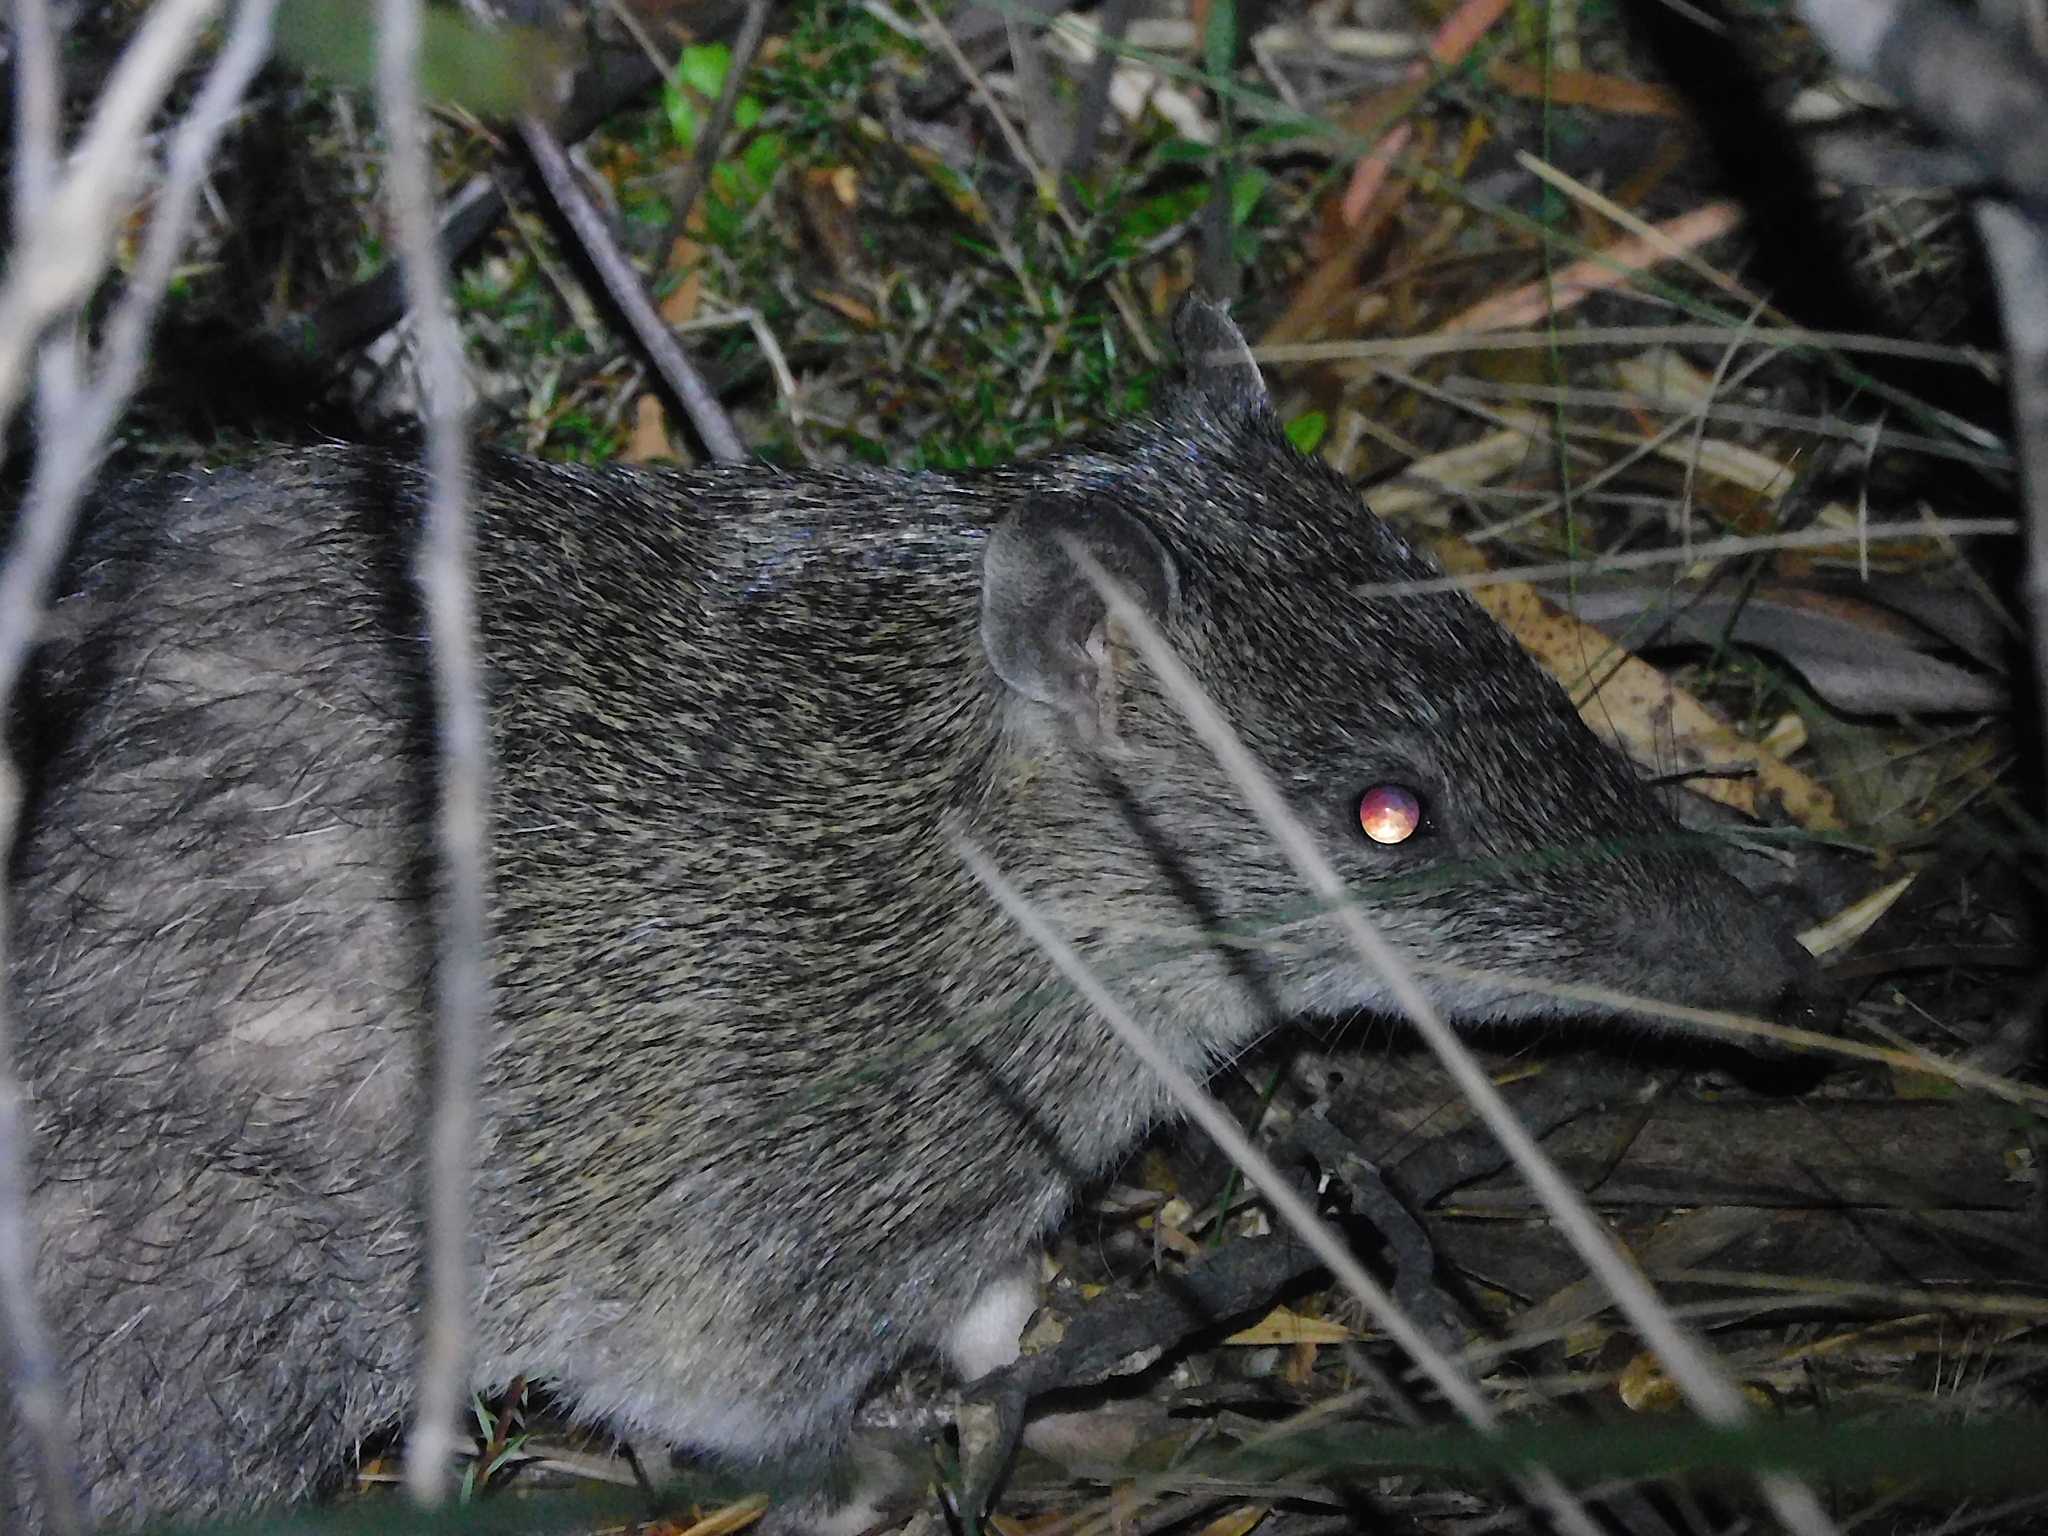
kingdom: Animalia
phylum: Chordata
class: Mammalia
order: Peramelemorphia
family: Peramelidae
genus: Isoodon
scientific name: Isoodon obesulus
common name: Southern brown bandicoot
